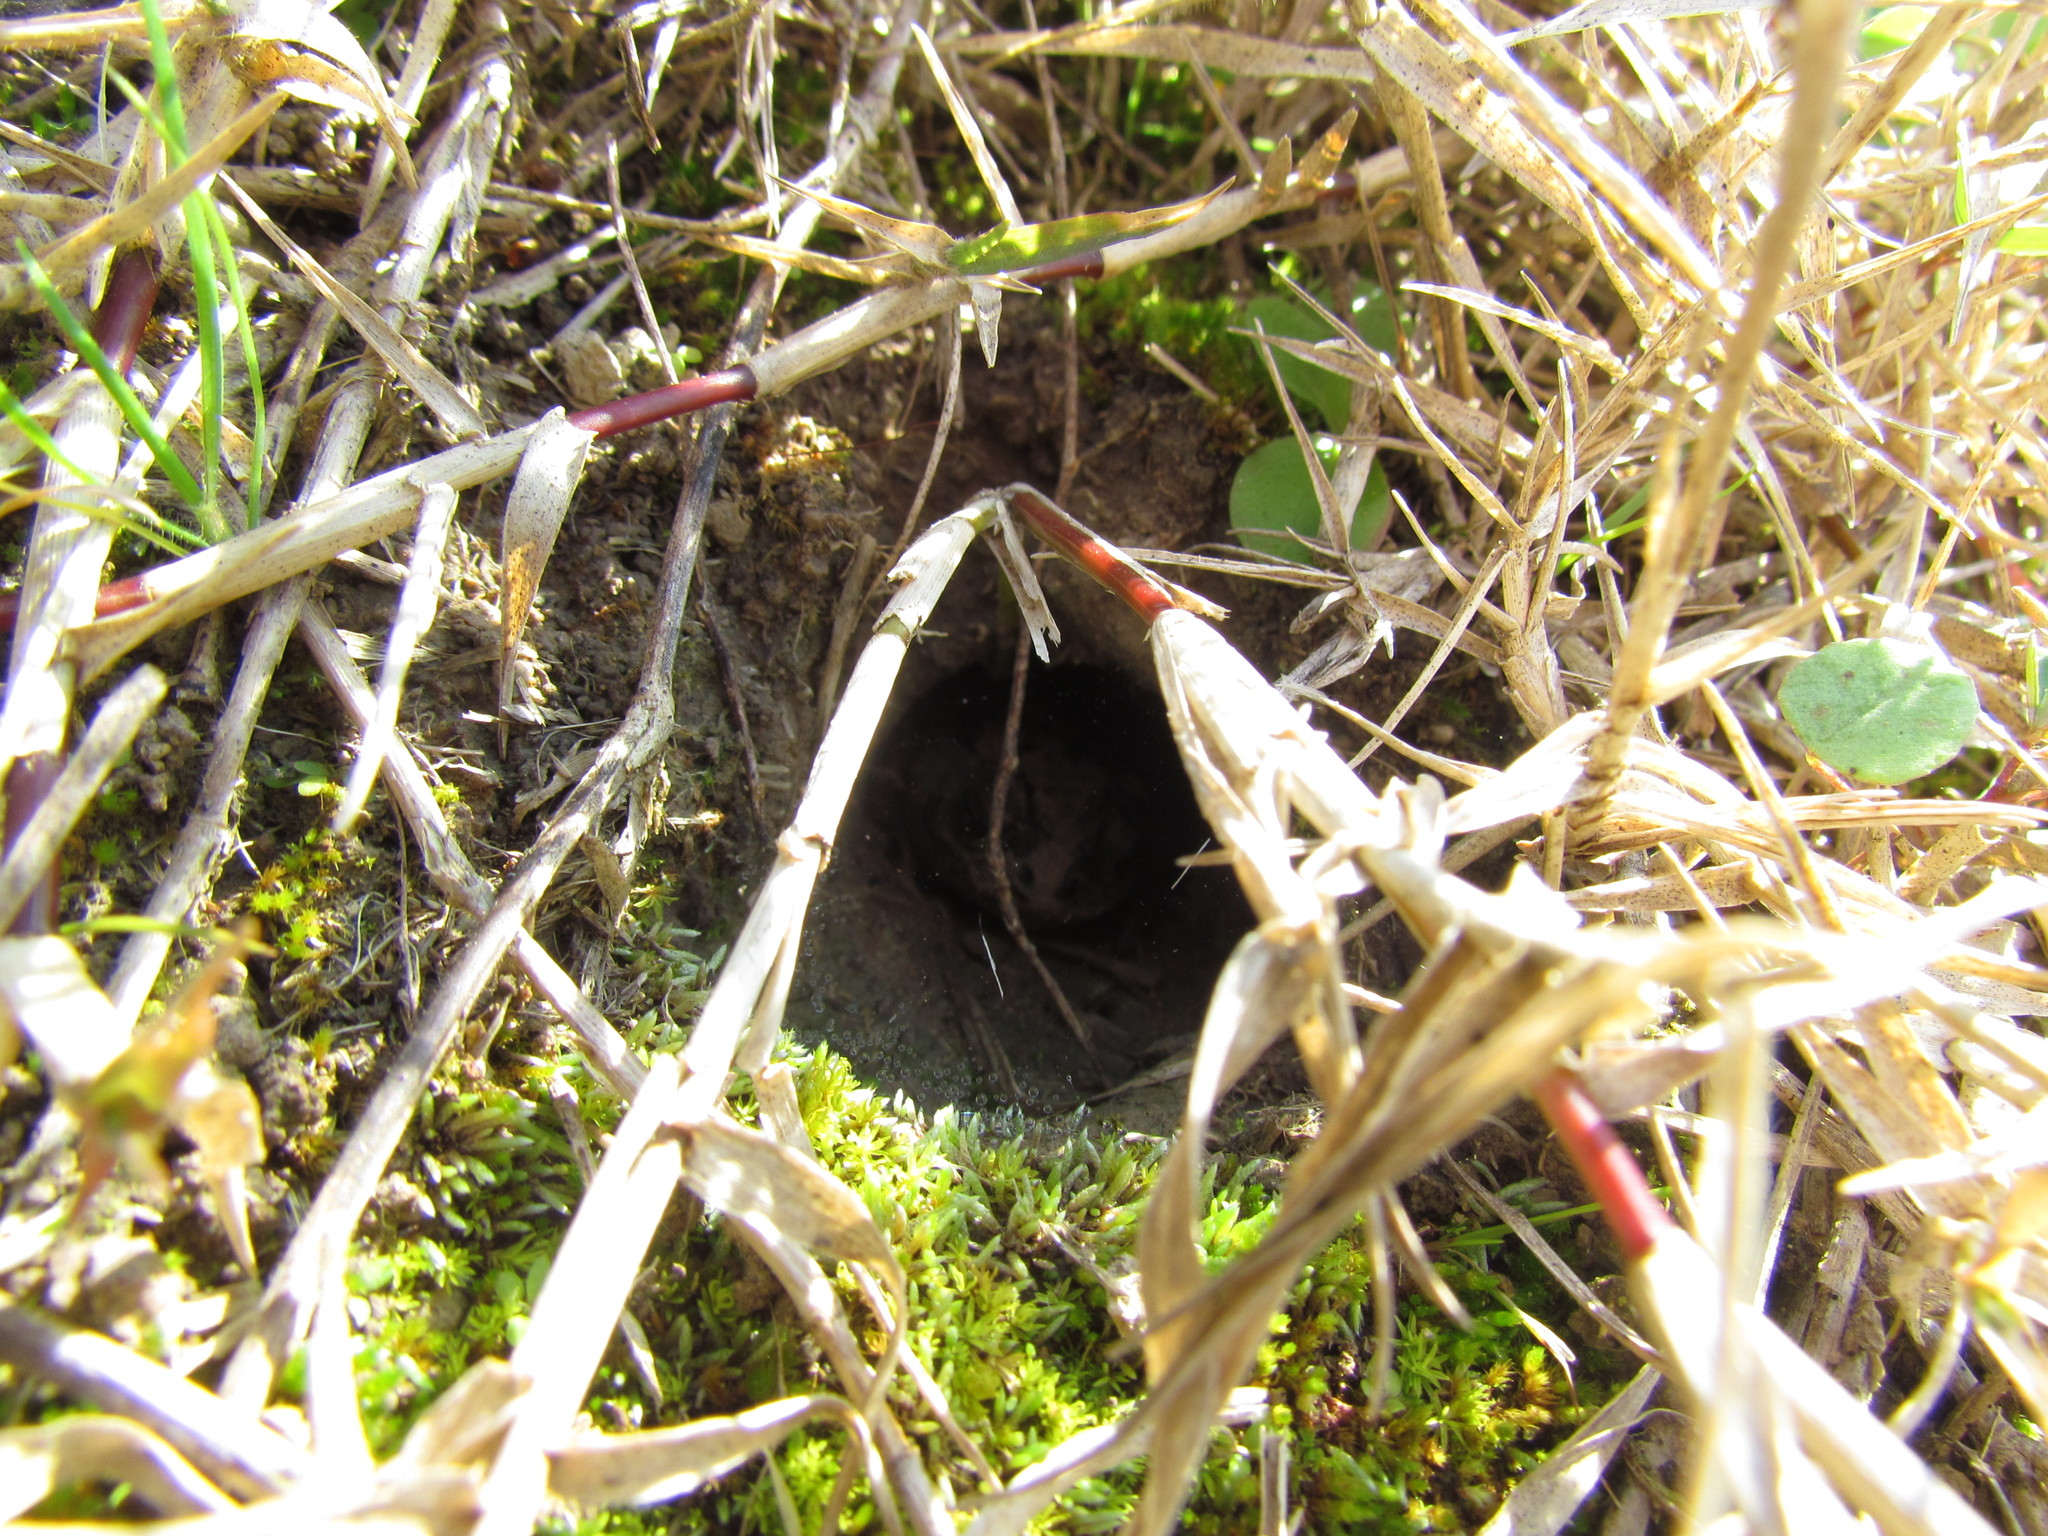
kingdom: Animalia
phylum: Chordata
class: Amphibia
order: Anura
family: Bufonidae
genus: Rhinella
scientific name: Rhinella dorbignyi
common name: D´orbigny’s toad
